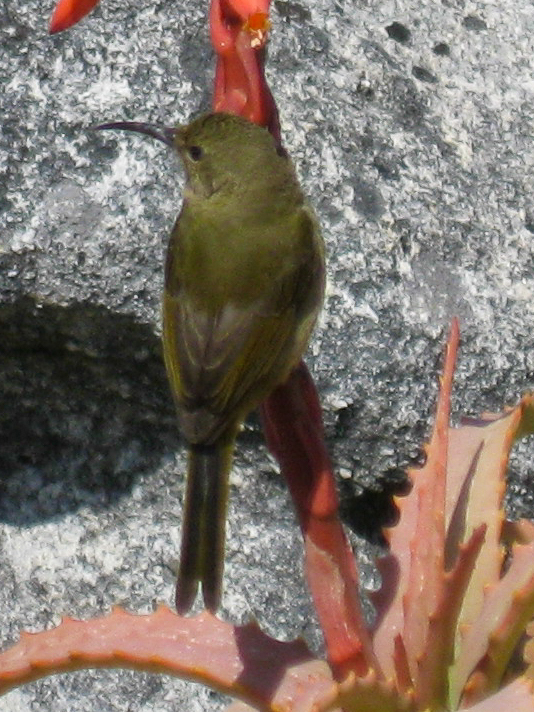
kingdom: Animalia
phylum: Chordata
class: Aves
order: Passeriformes
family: Nectariniidae
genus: Anthobaphes
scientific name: Anthobaphes violacea
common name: Orange-breasted sunbird
